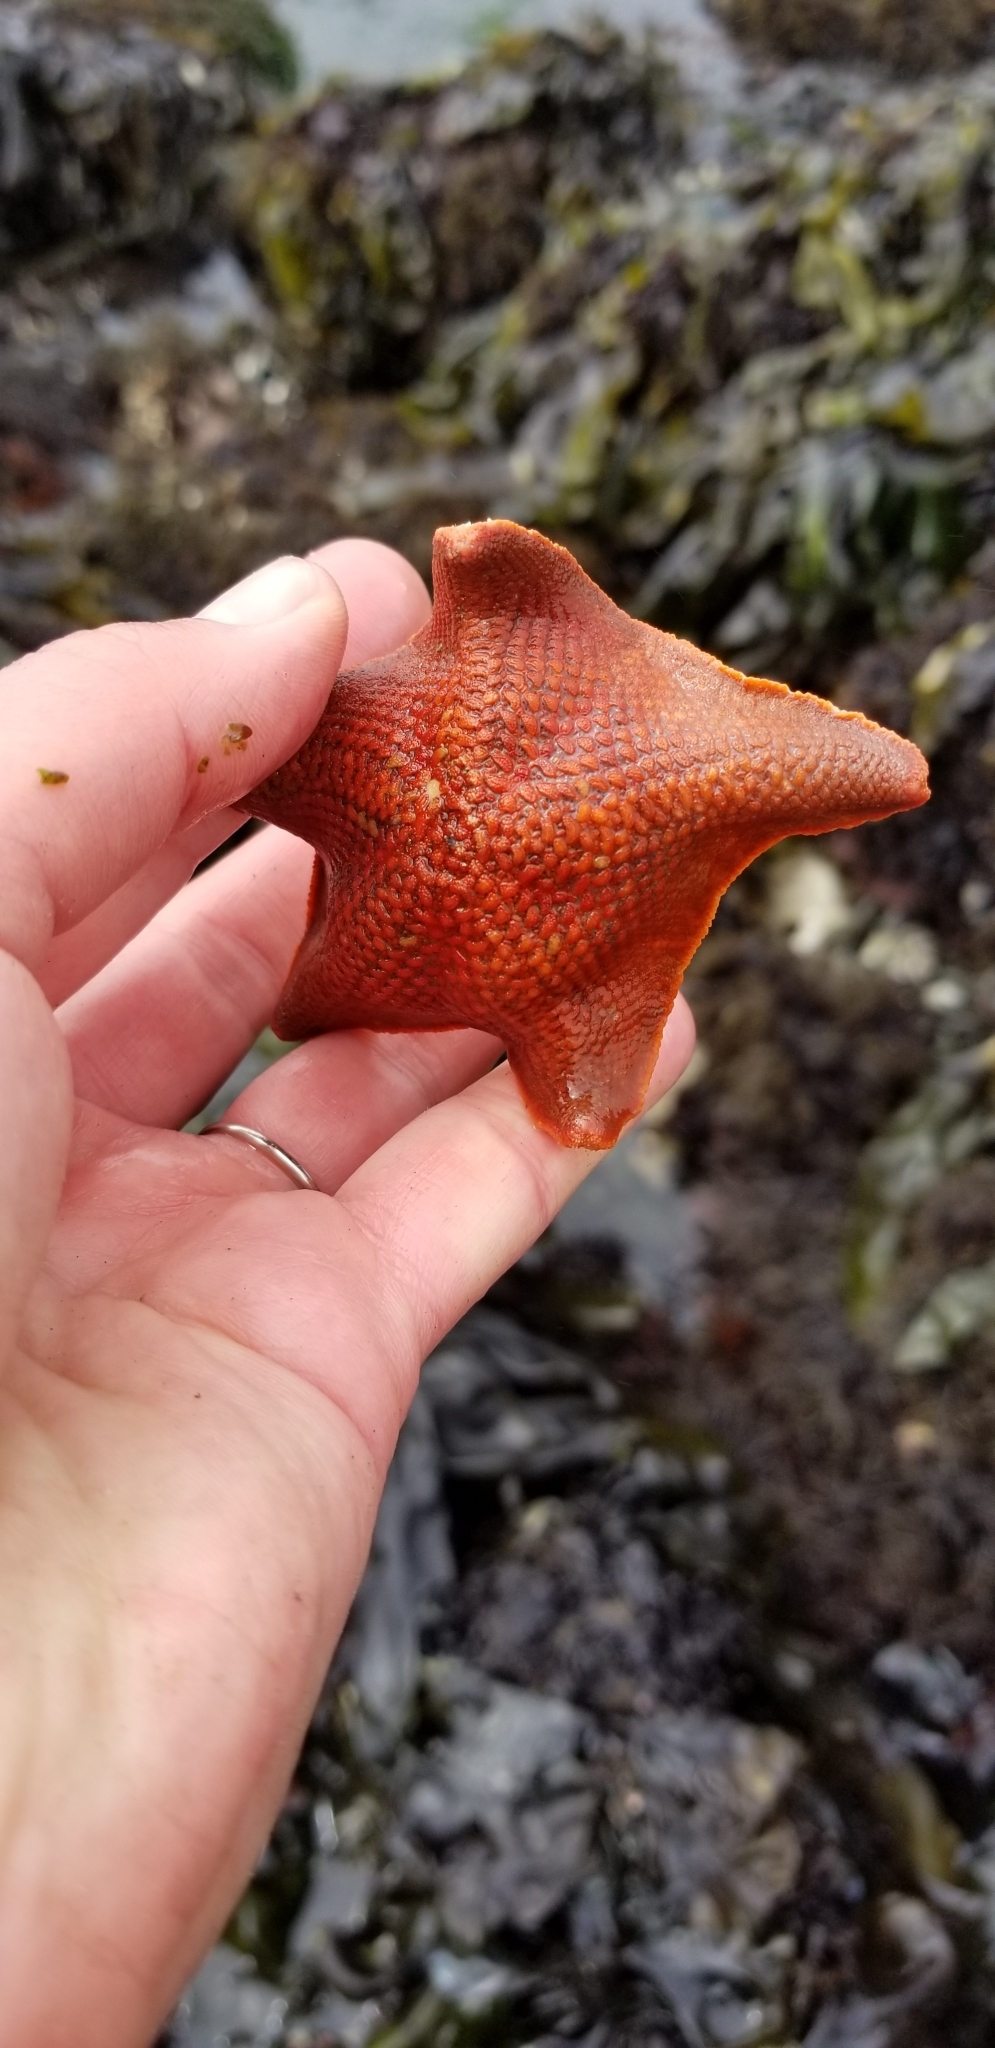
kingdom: Animalia
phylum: Echinodermata
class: Asteroidea
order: Valvatida
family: Asterinidae
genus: Patiria
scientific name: Patiria miniata
